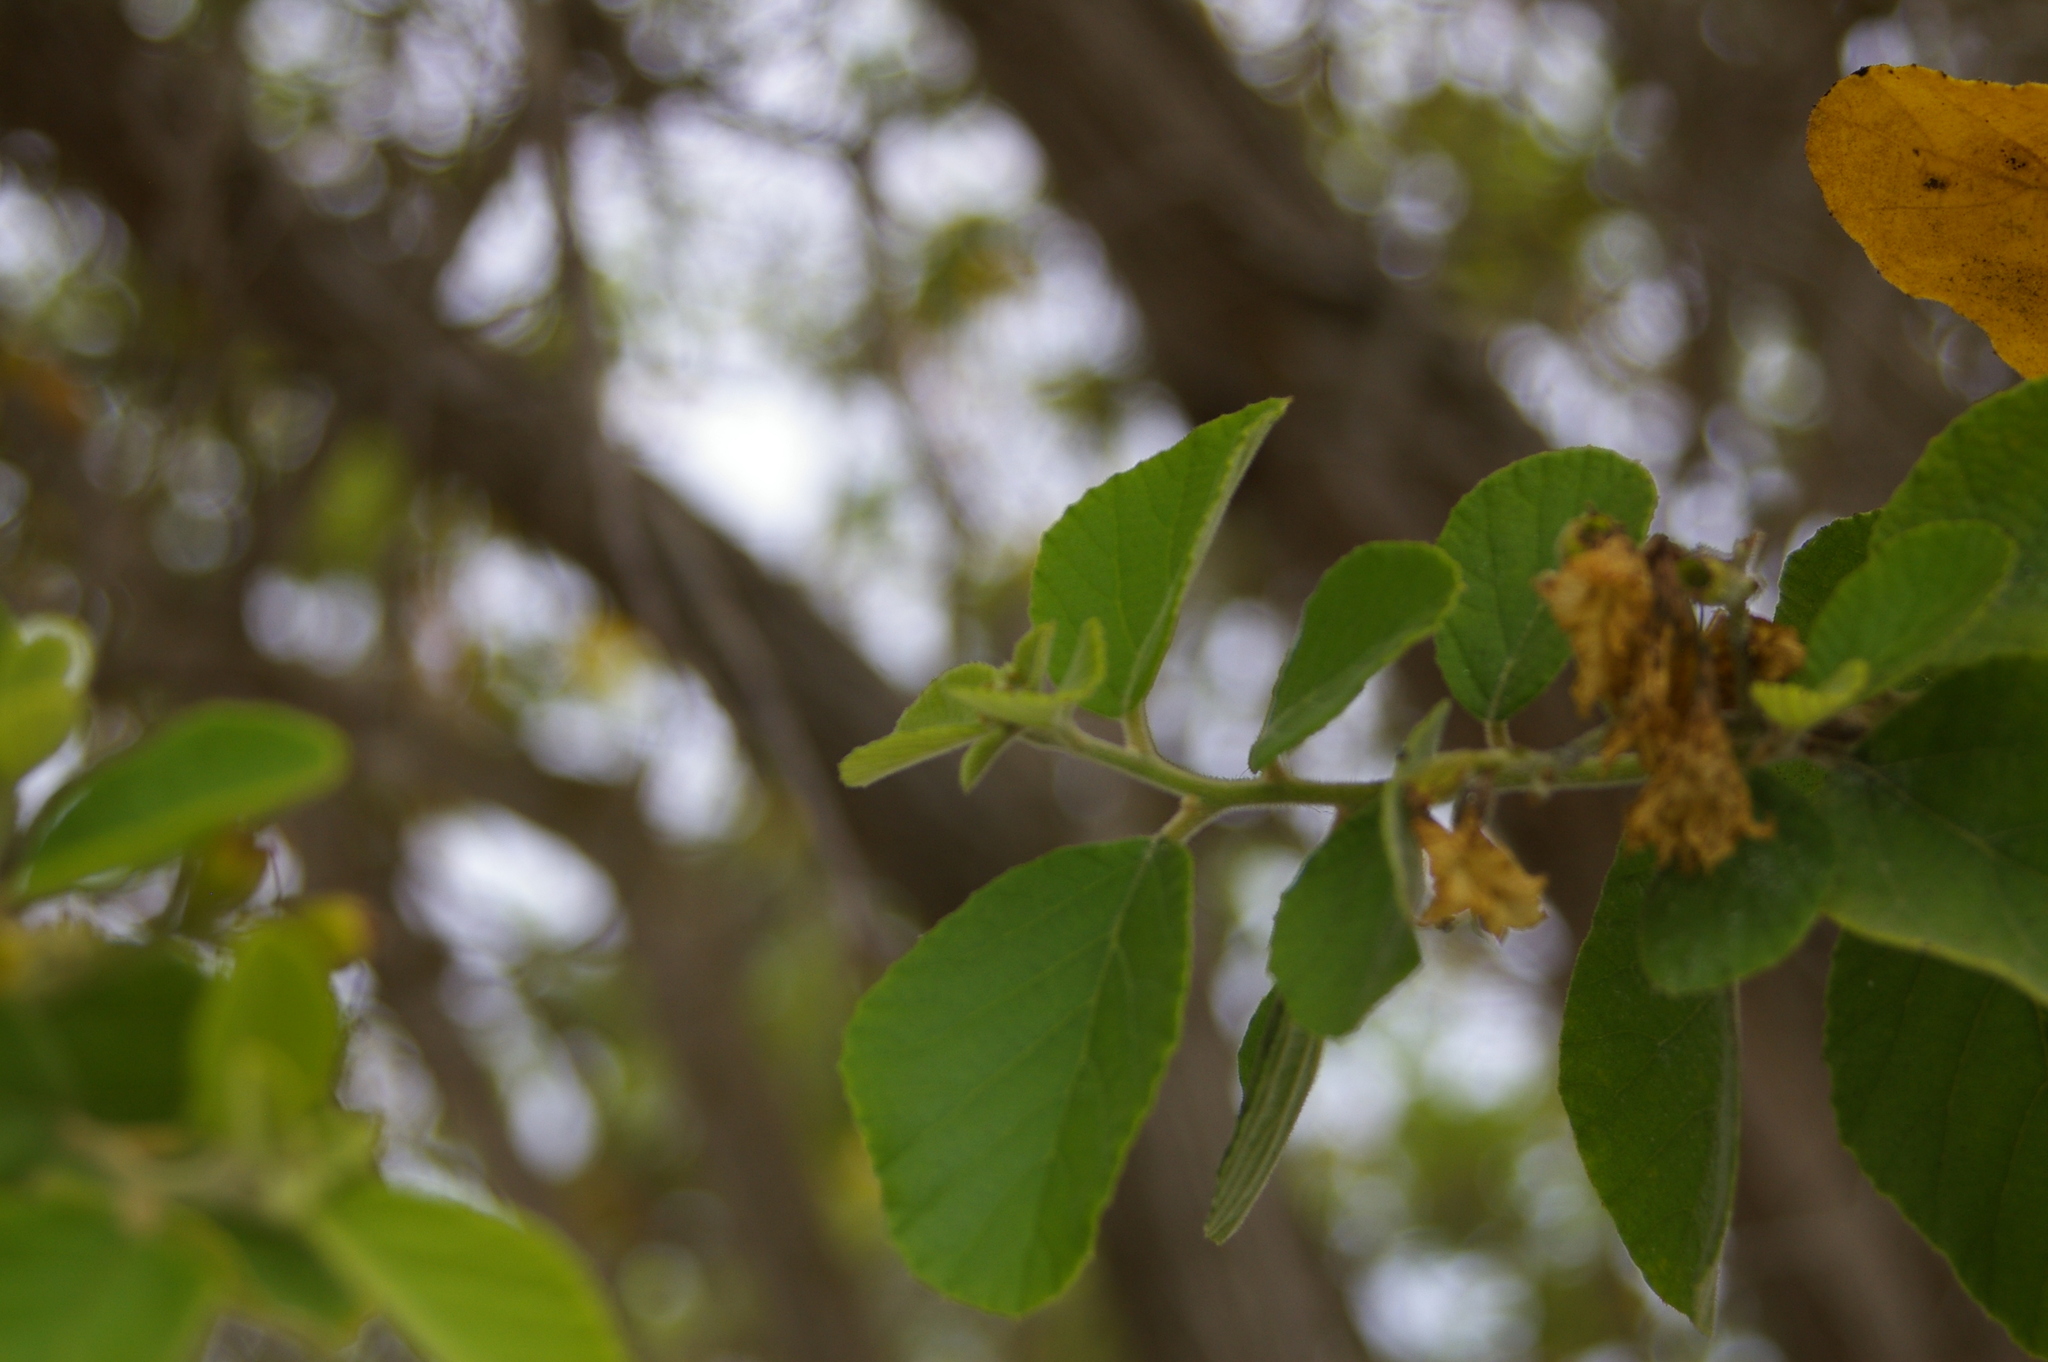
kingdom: Plantae
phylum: Tracheophyta
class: Magnoliopsida
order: Boraginales
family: Cordiaceae
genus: Cordia
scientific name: Cordia lutea
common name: Yellow geiger
